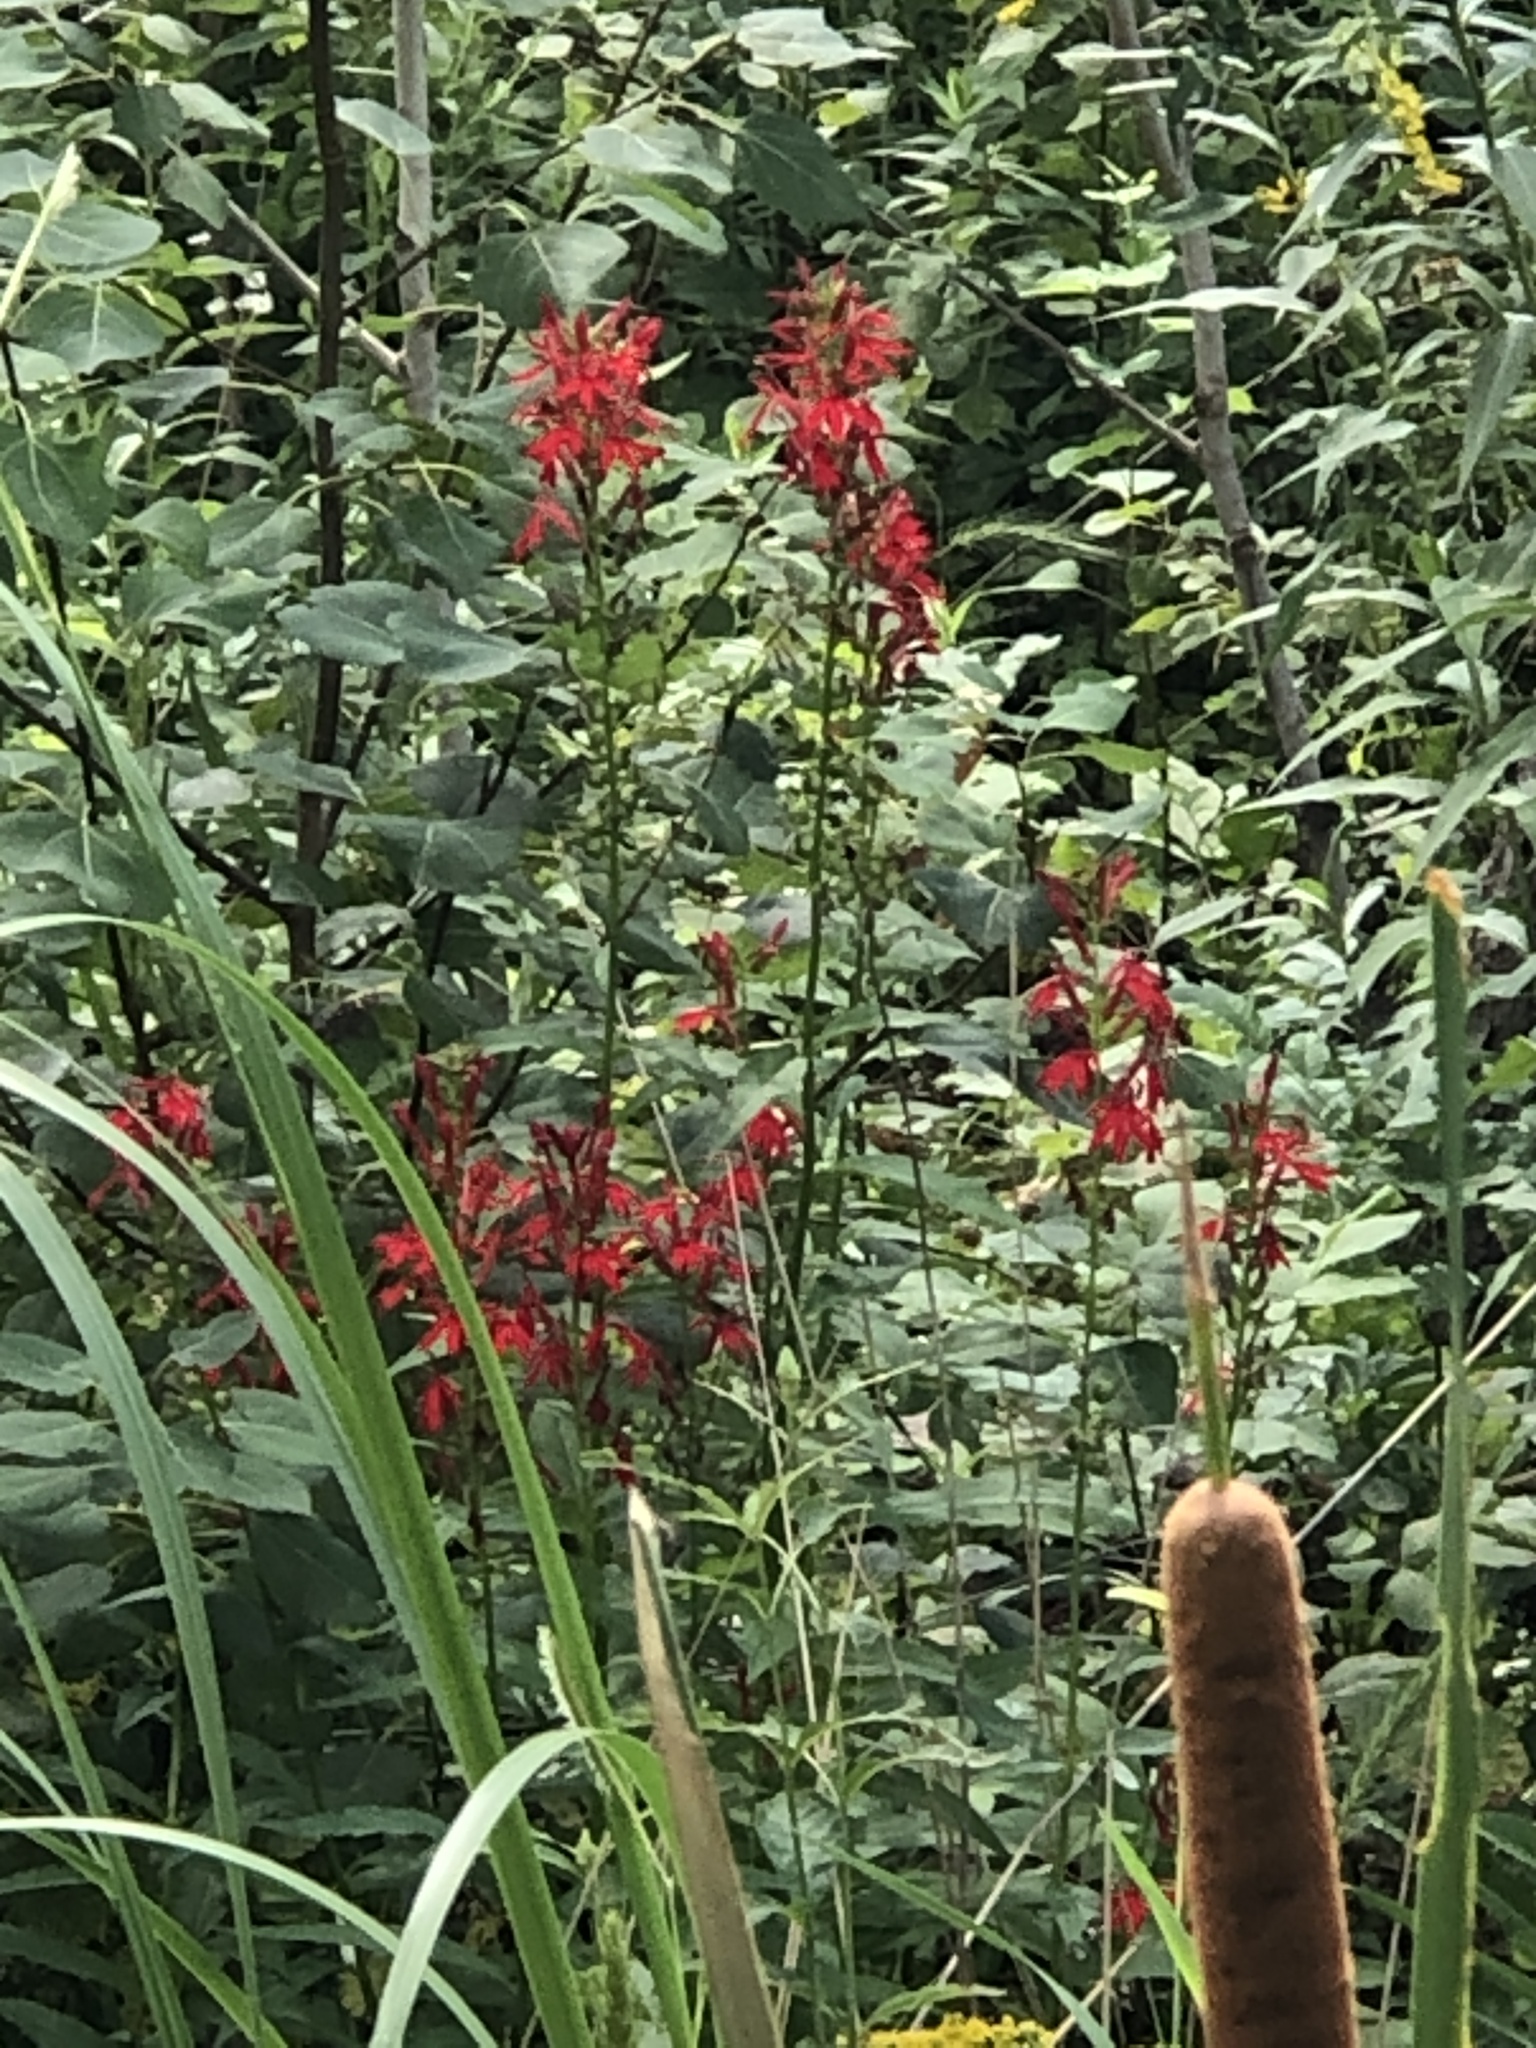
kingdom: Plantae
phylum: Tracheophyta
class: Magnoliopsida
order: Asterales
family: Campanulaceae
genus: Lobelia
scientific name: Lobelia cardinalis
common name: Cardinal flower
